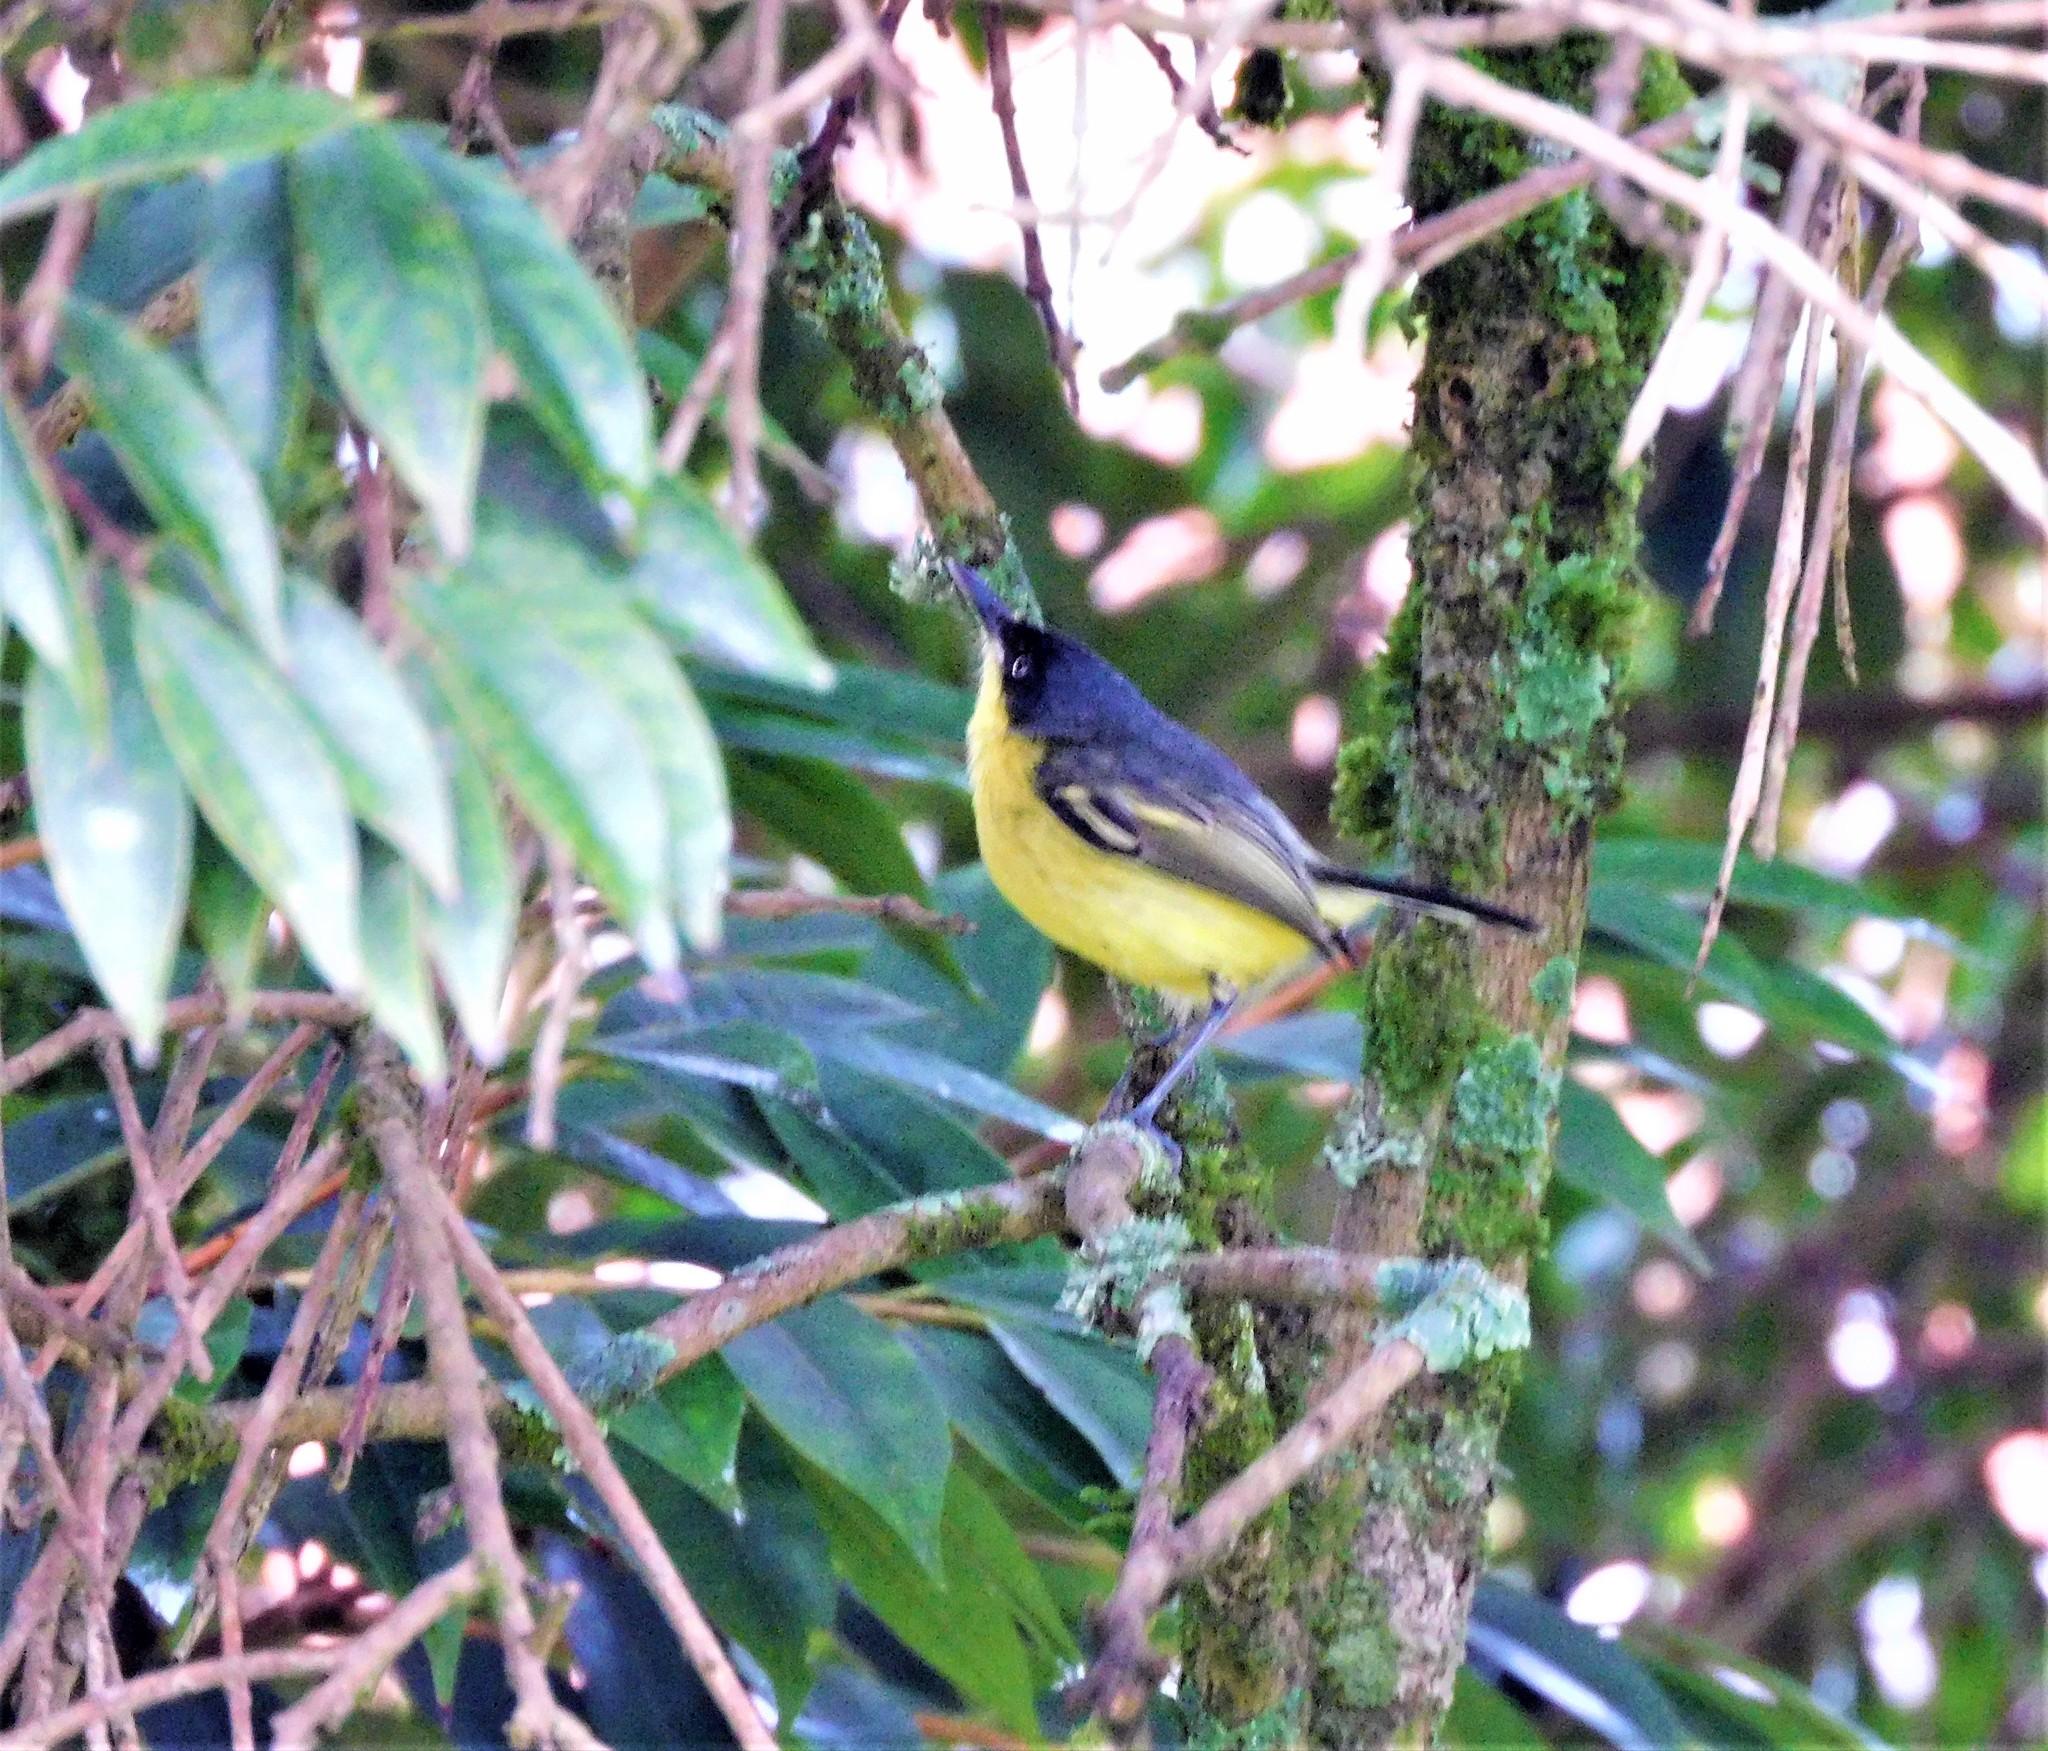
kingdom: Animalia
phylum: Chordata
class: Aves
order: Passeriformes
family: Tyrannidae
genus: Todirostrum
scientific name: Todirostrum cinereum
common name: Common tody-flycatcher
